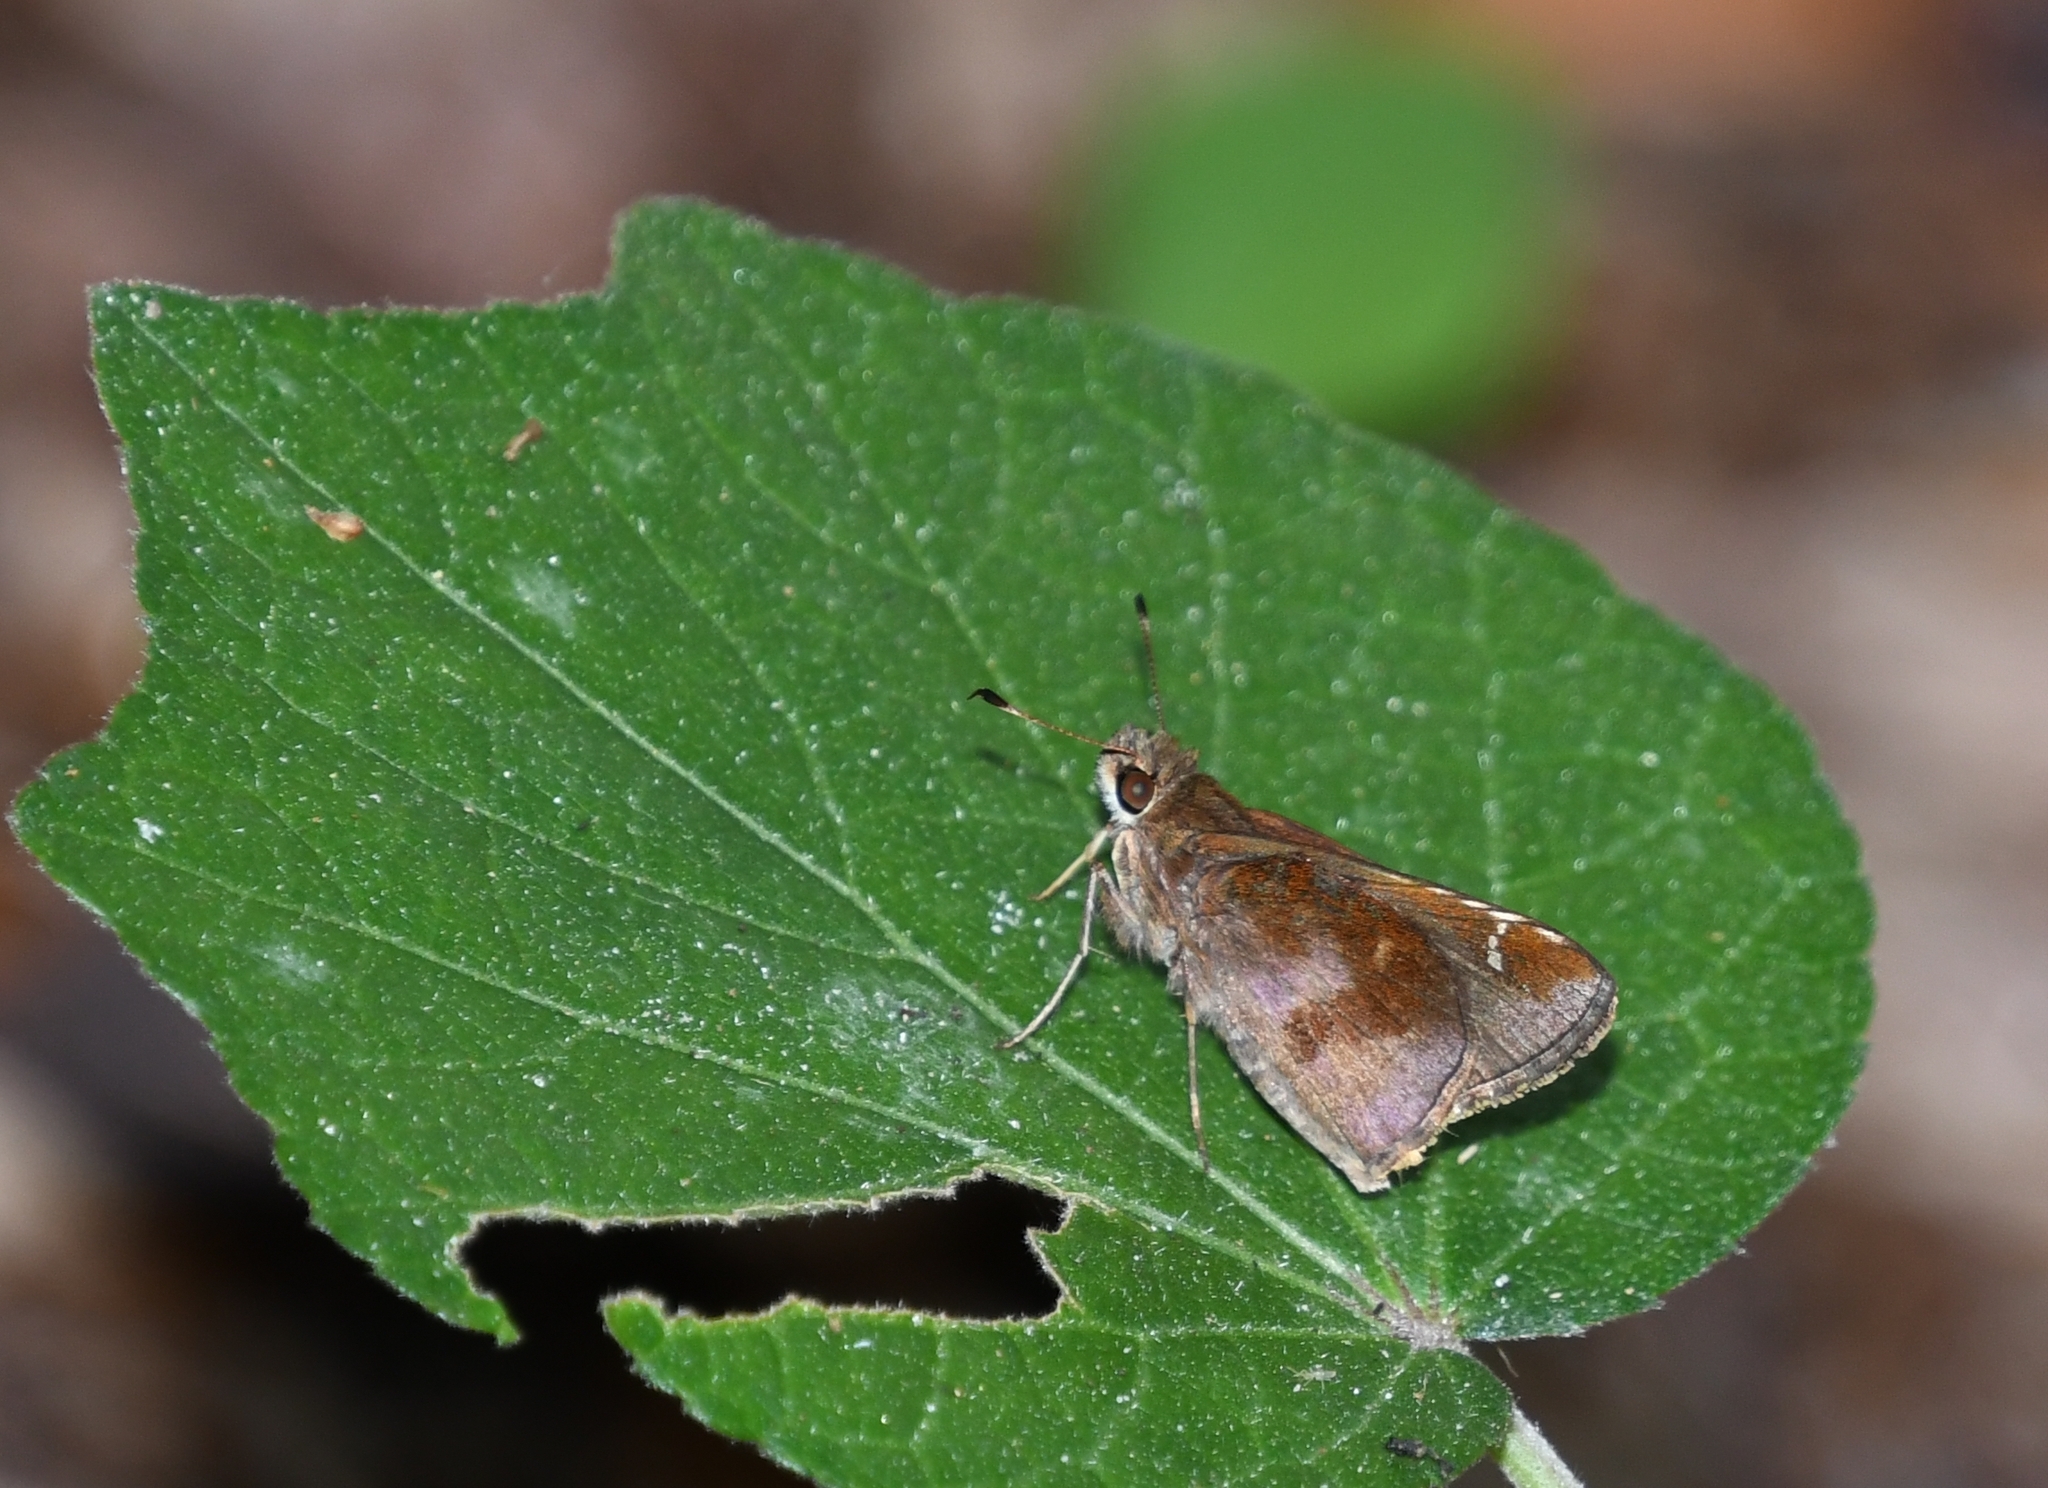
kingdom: Animalia
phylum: Arthropoda
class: Insecta
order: Lepidoptera
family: Hesperiidae
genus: Lerema
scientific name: Lerema accius
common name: Clouded skipper
